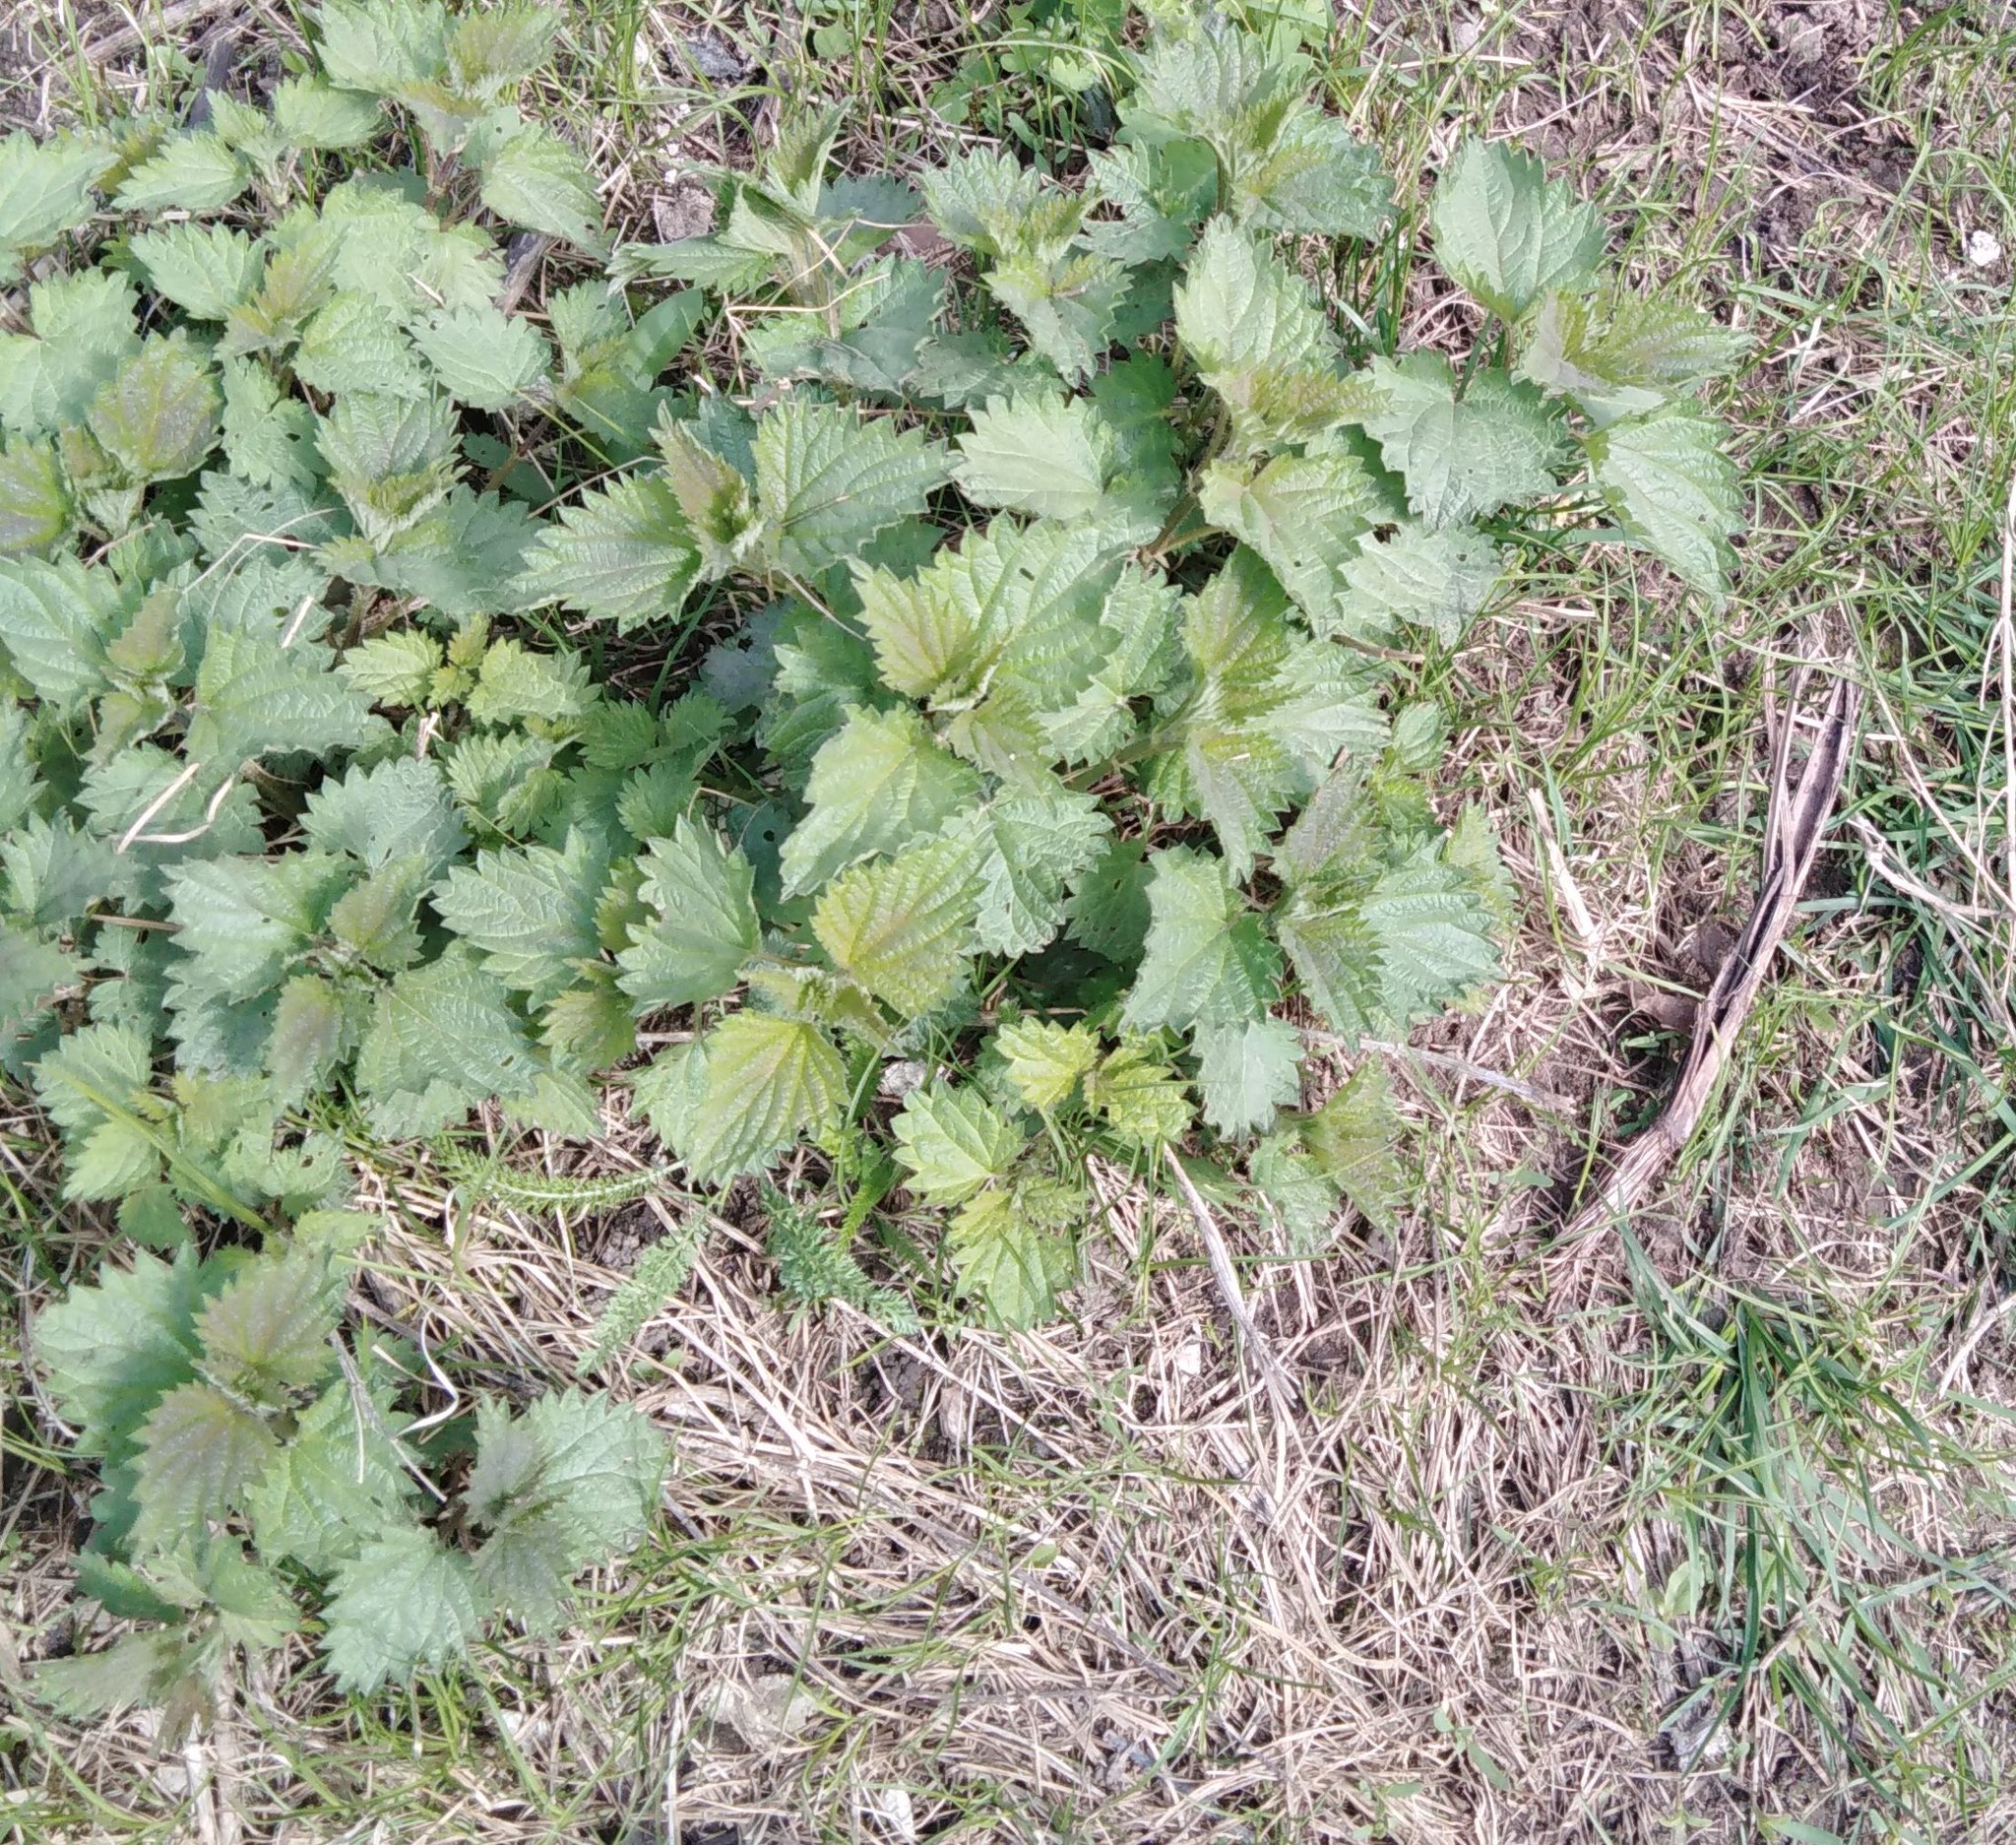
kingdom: Plantae
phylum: Tracheophyta
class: Magnoliopsida
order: Rosales
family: Urticaceae
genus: Urtica
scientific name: Urtica dioica
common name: Common nettle
